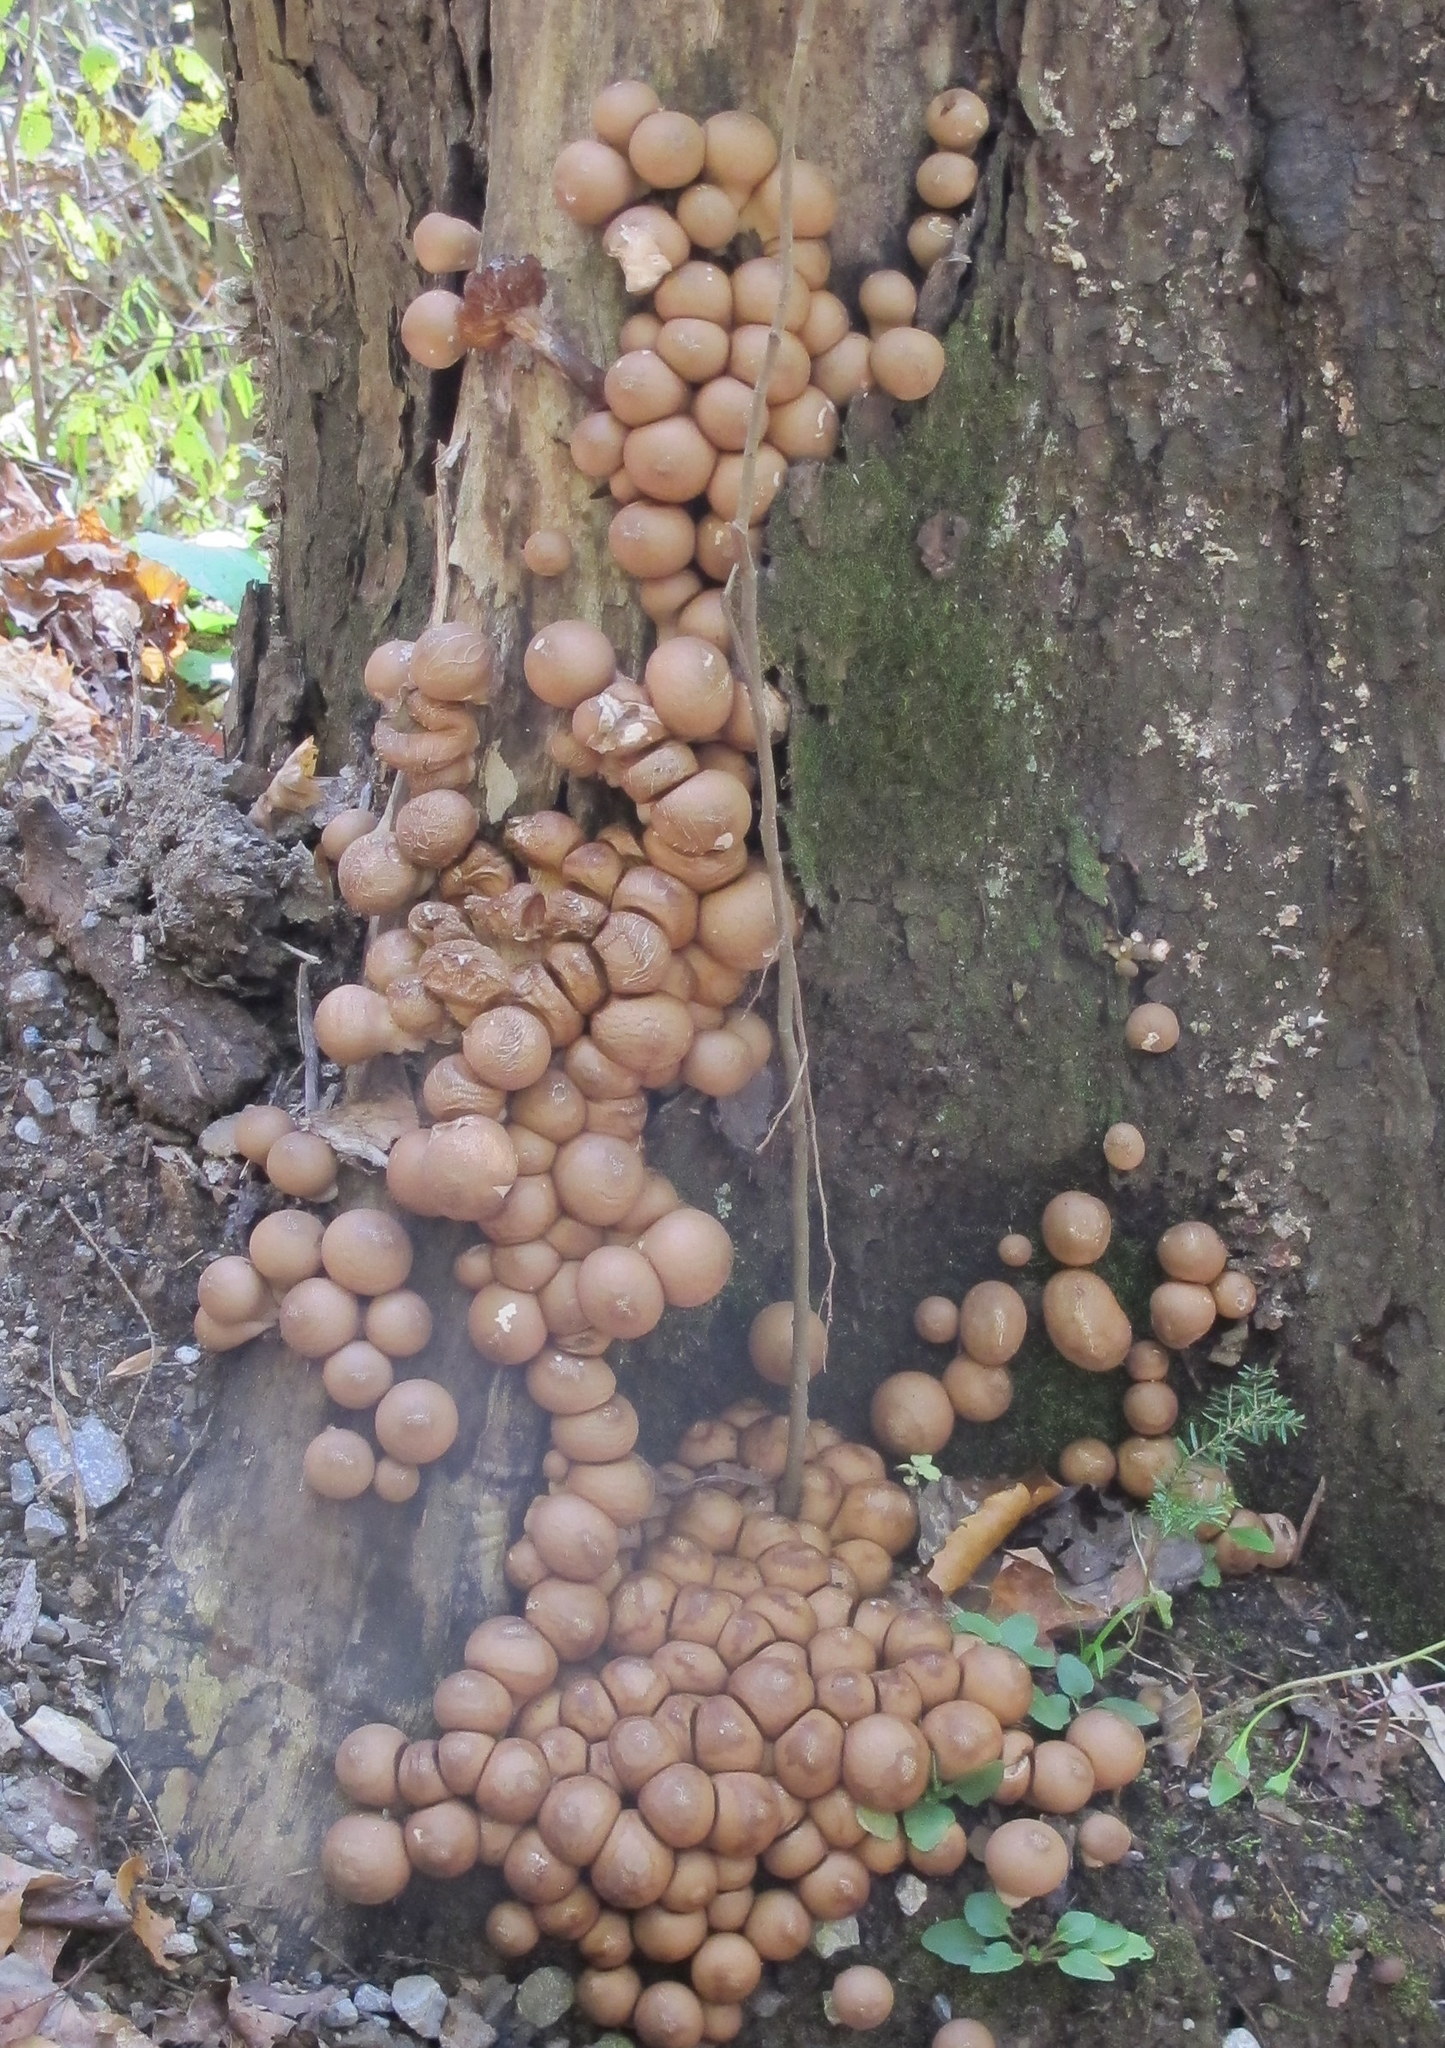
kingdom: Fungi
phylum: Basidiomycota
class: Agaricomycetes
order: Agaricales
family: Lycoperdaceae
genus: Apioperdon
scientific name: Apioperdon pyriforme
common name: Pear-shaped puffball
